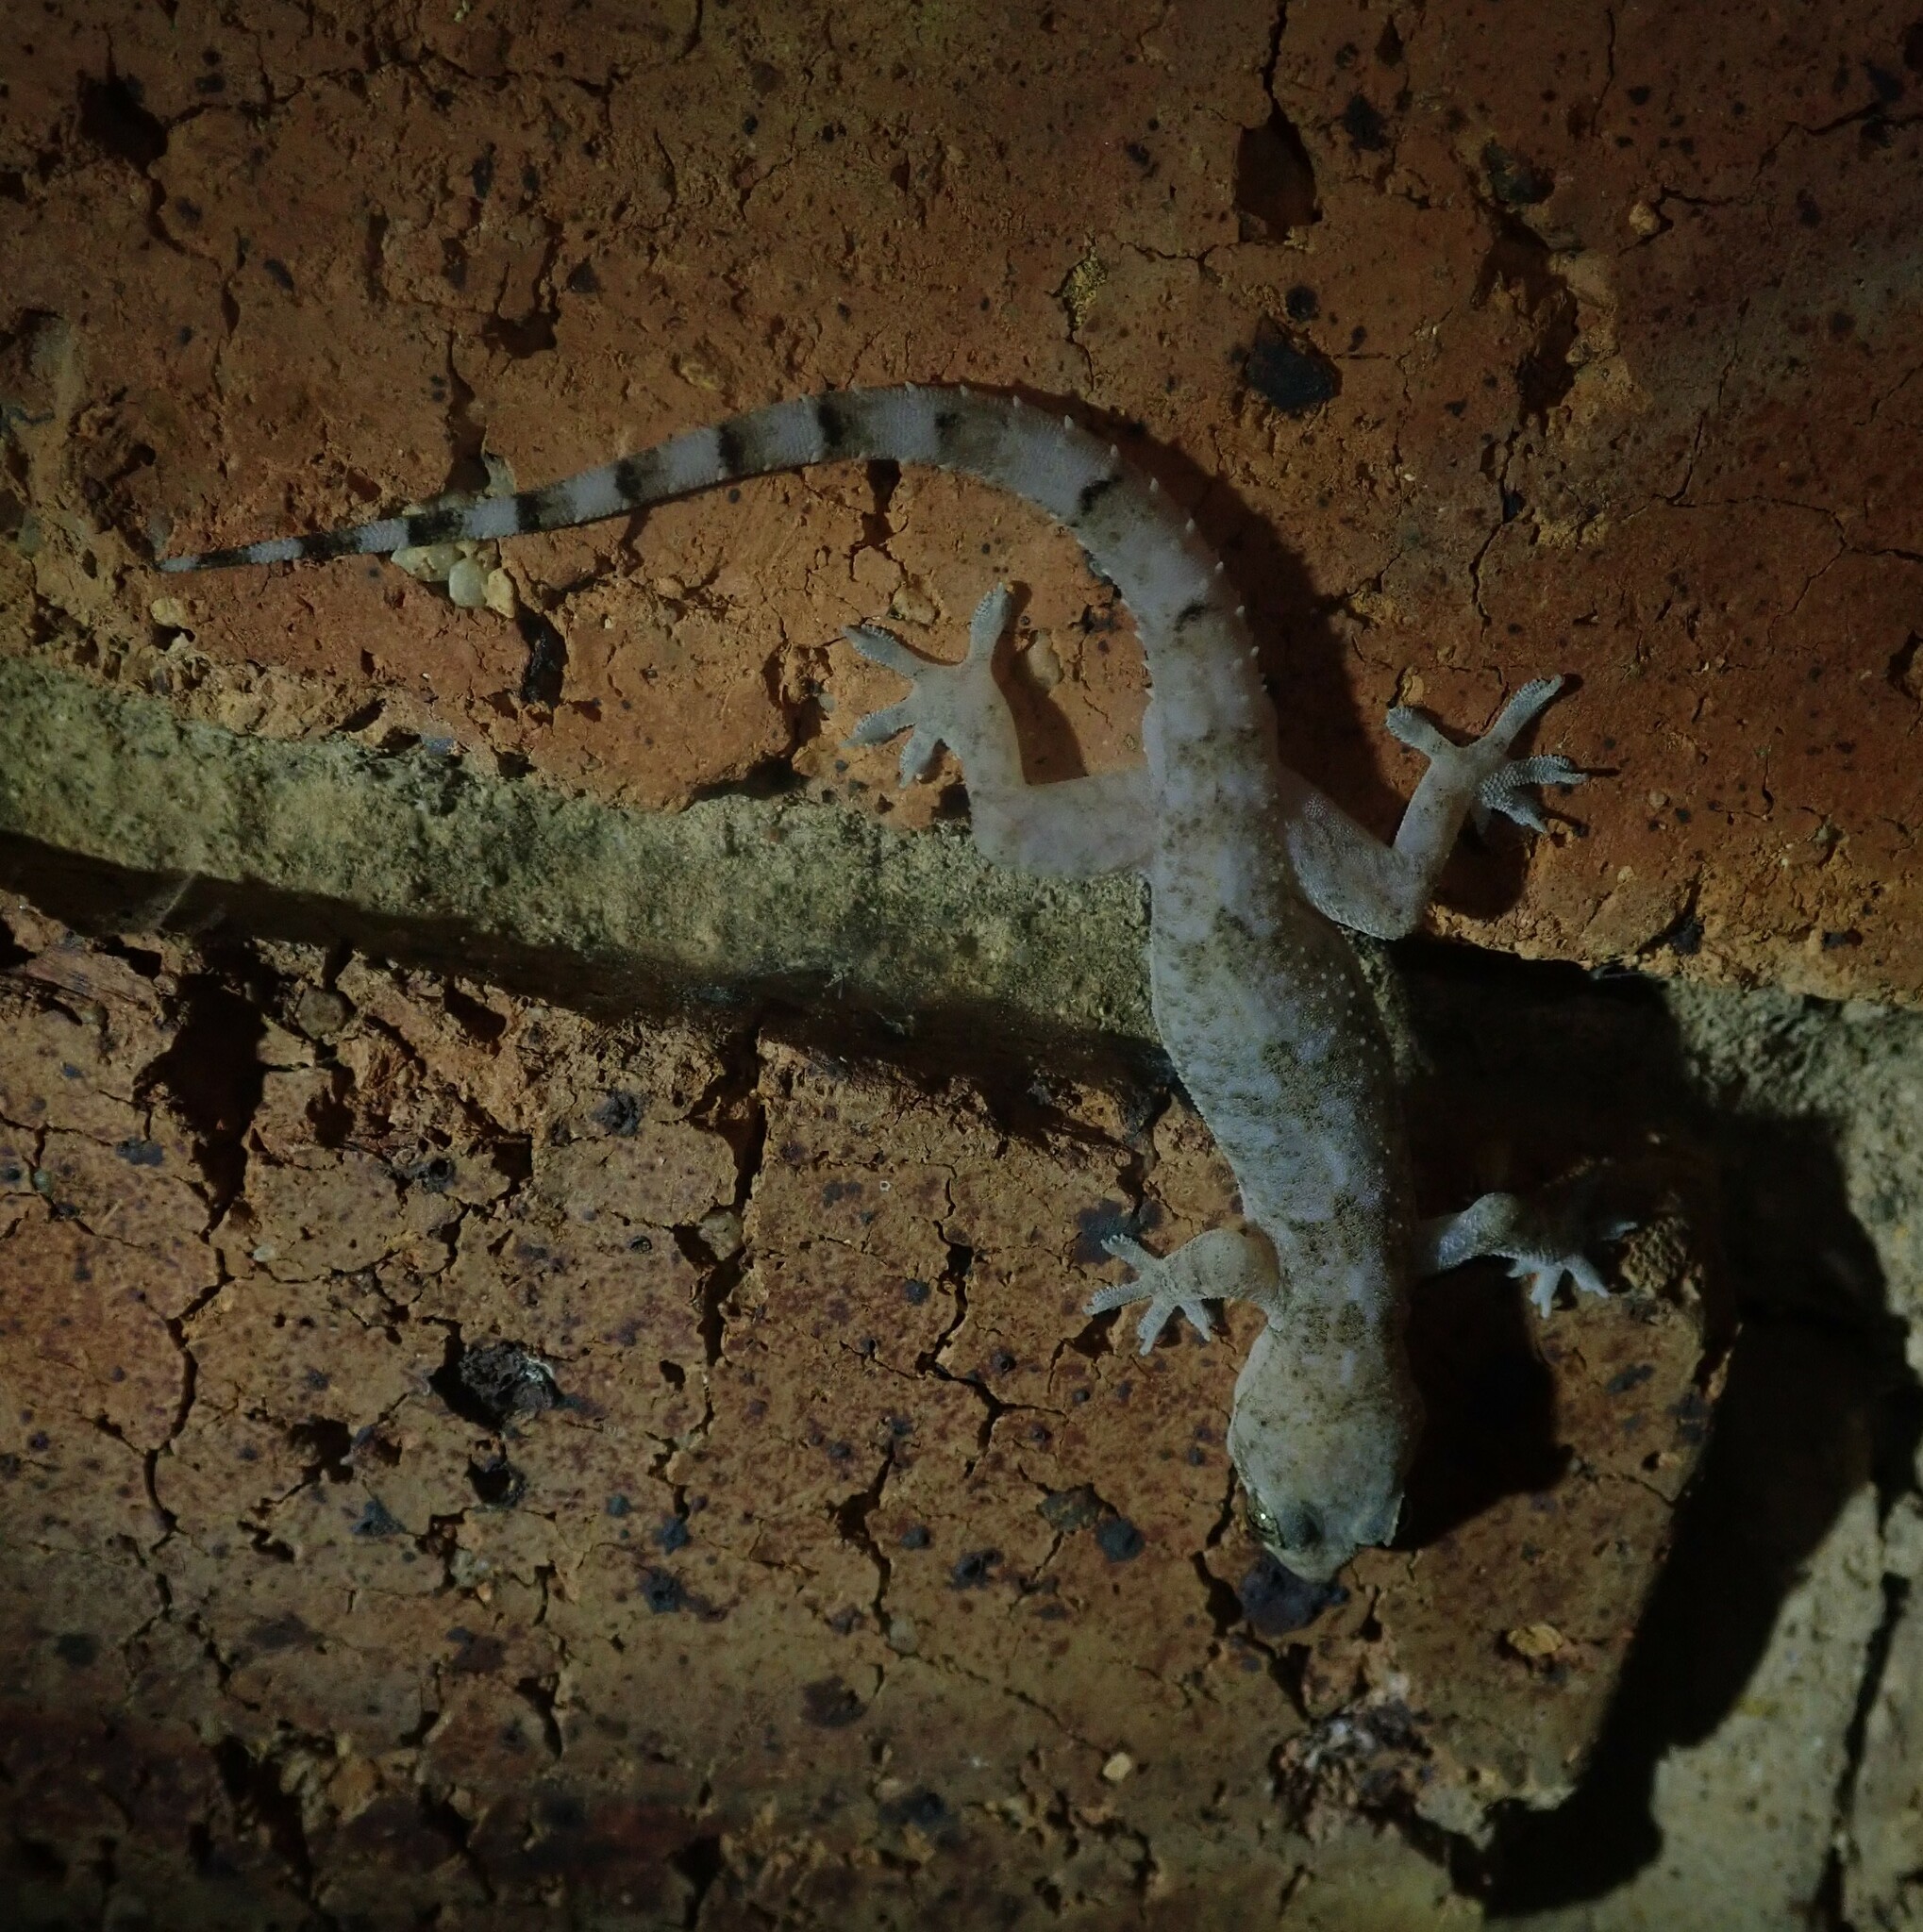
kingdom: Animalia
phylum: Chordata
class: Squamata
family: Gekkonidae
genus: Hemidactylus
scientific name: Hemidactylus mabouia
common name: House gecko
